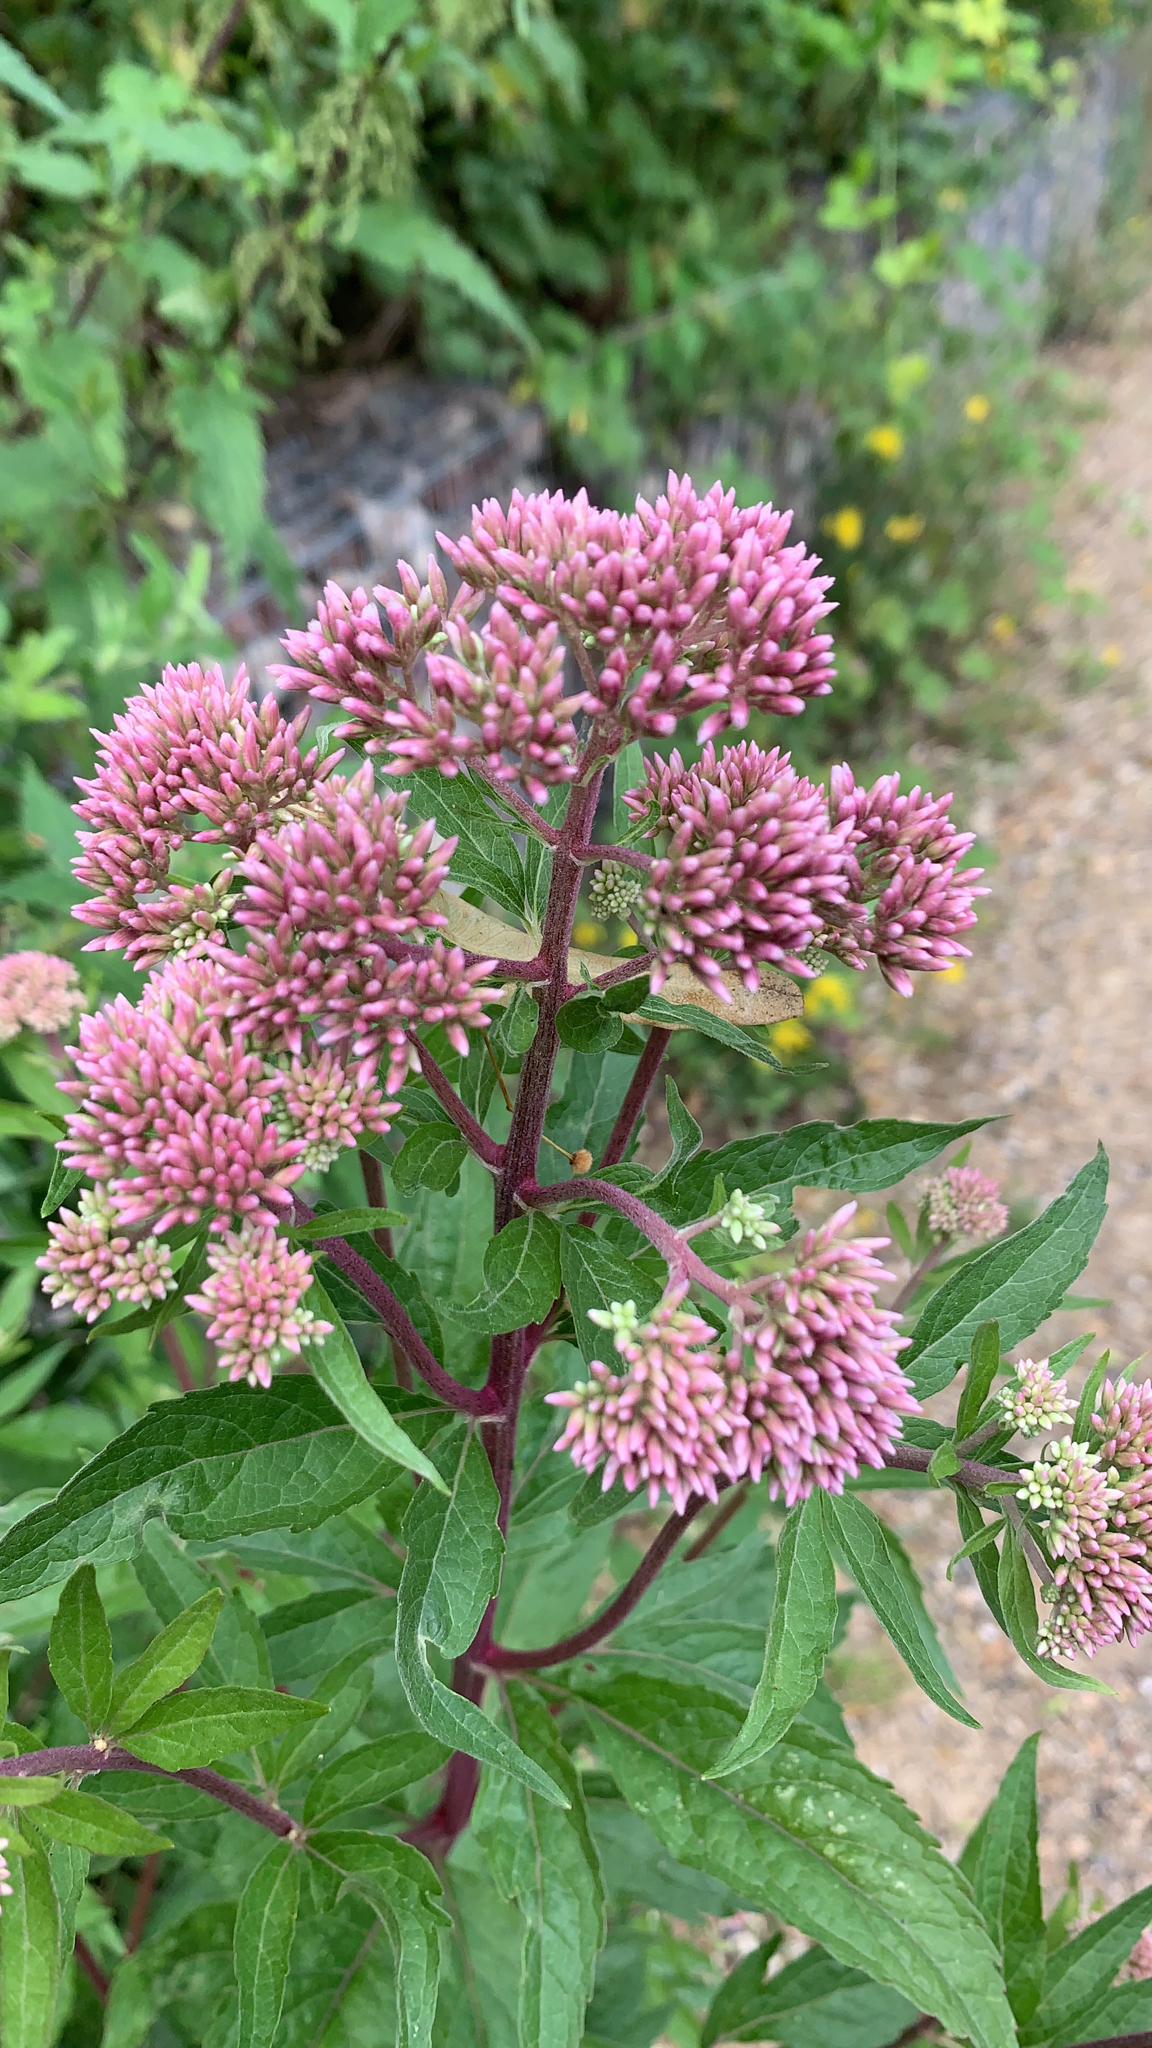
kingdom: Plantae
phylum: Tracheophyta
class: Magnoliopsida
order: Asterales
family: Asteraceae
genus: Eupatorium
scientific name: Eupatorium cannabinum
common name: Hemp-agrimony
